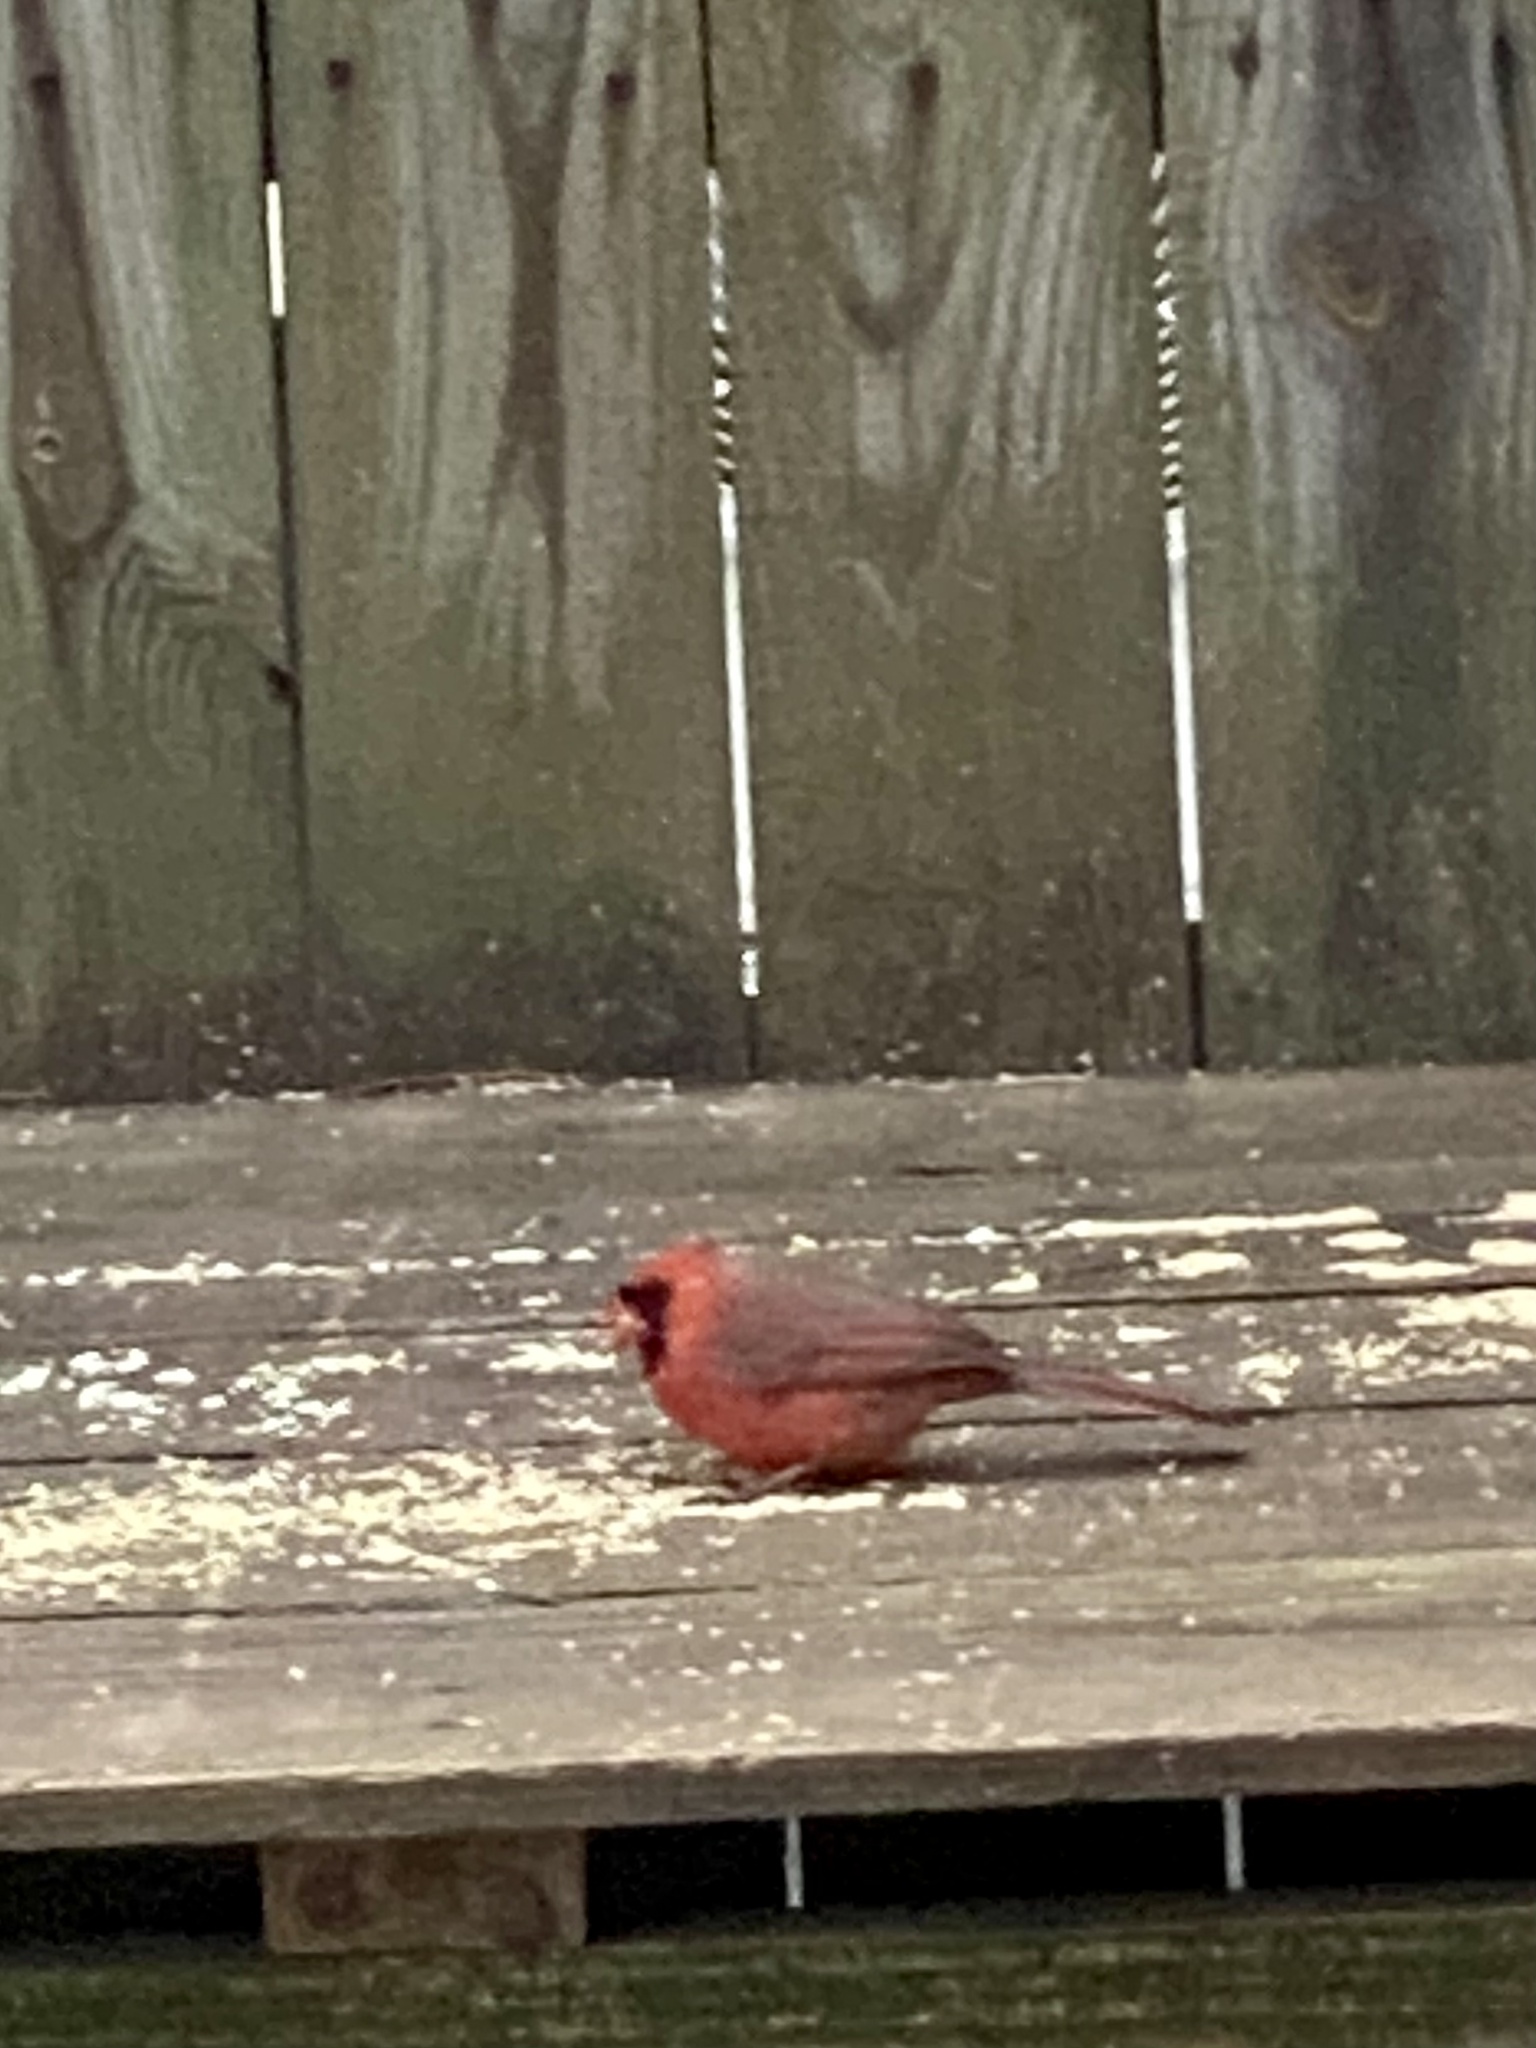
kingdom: Animalia
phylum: Chordata
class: Aves
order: Passeriformes
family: Cardinalidae
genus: Cardinalis
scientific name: Cardinalis cardinalis
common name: Northern cardinal
